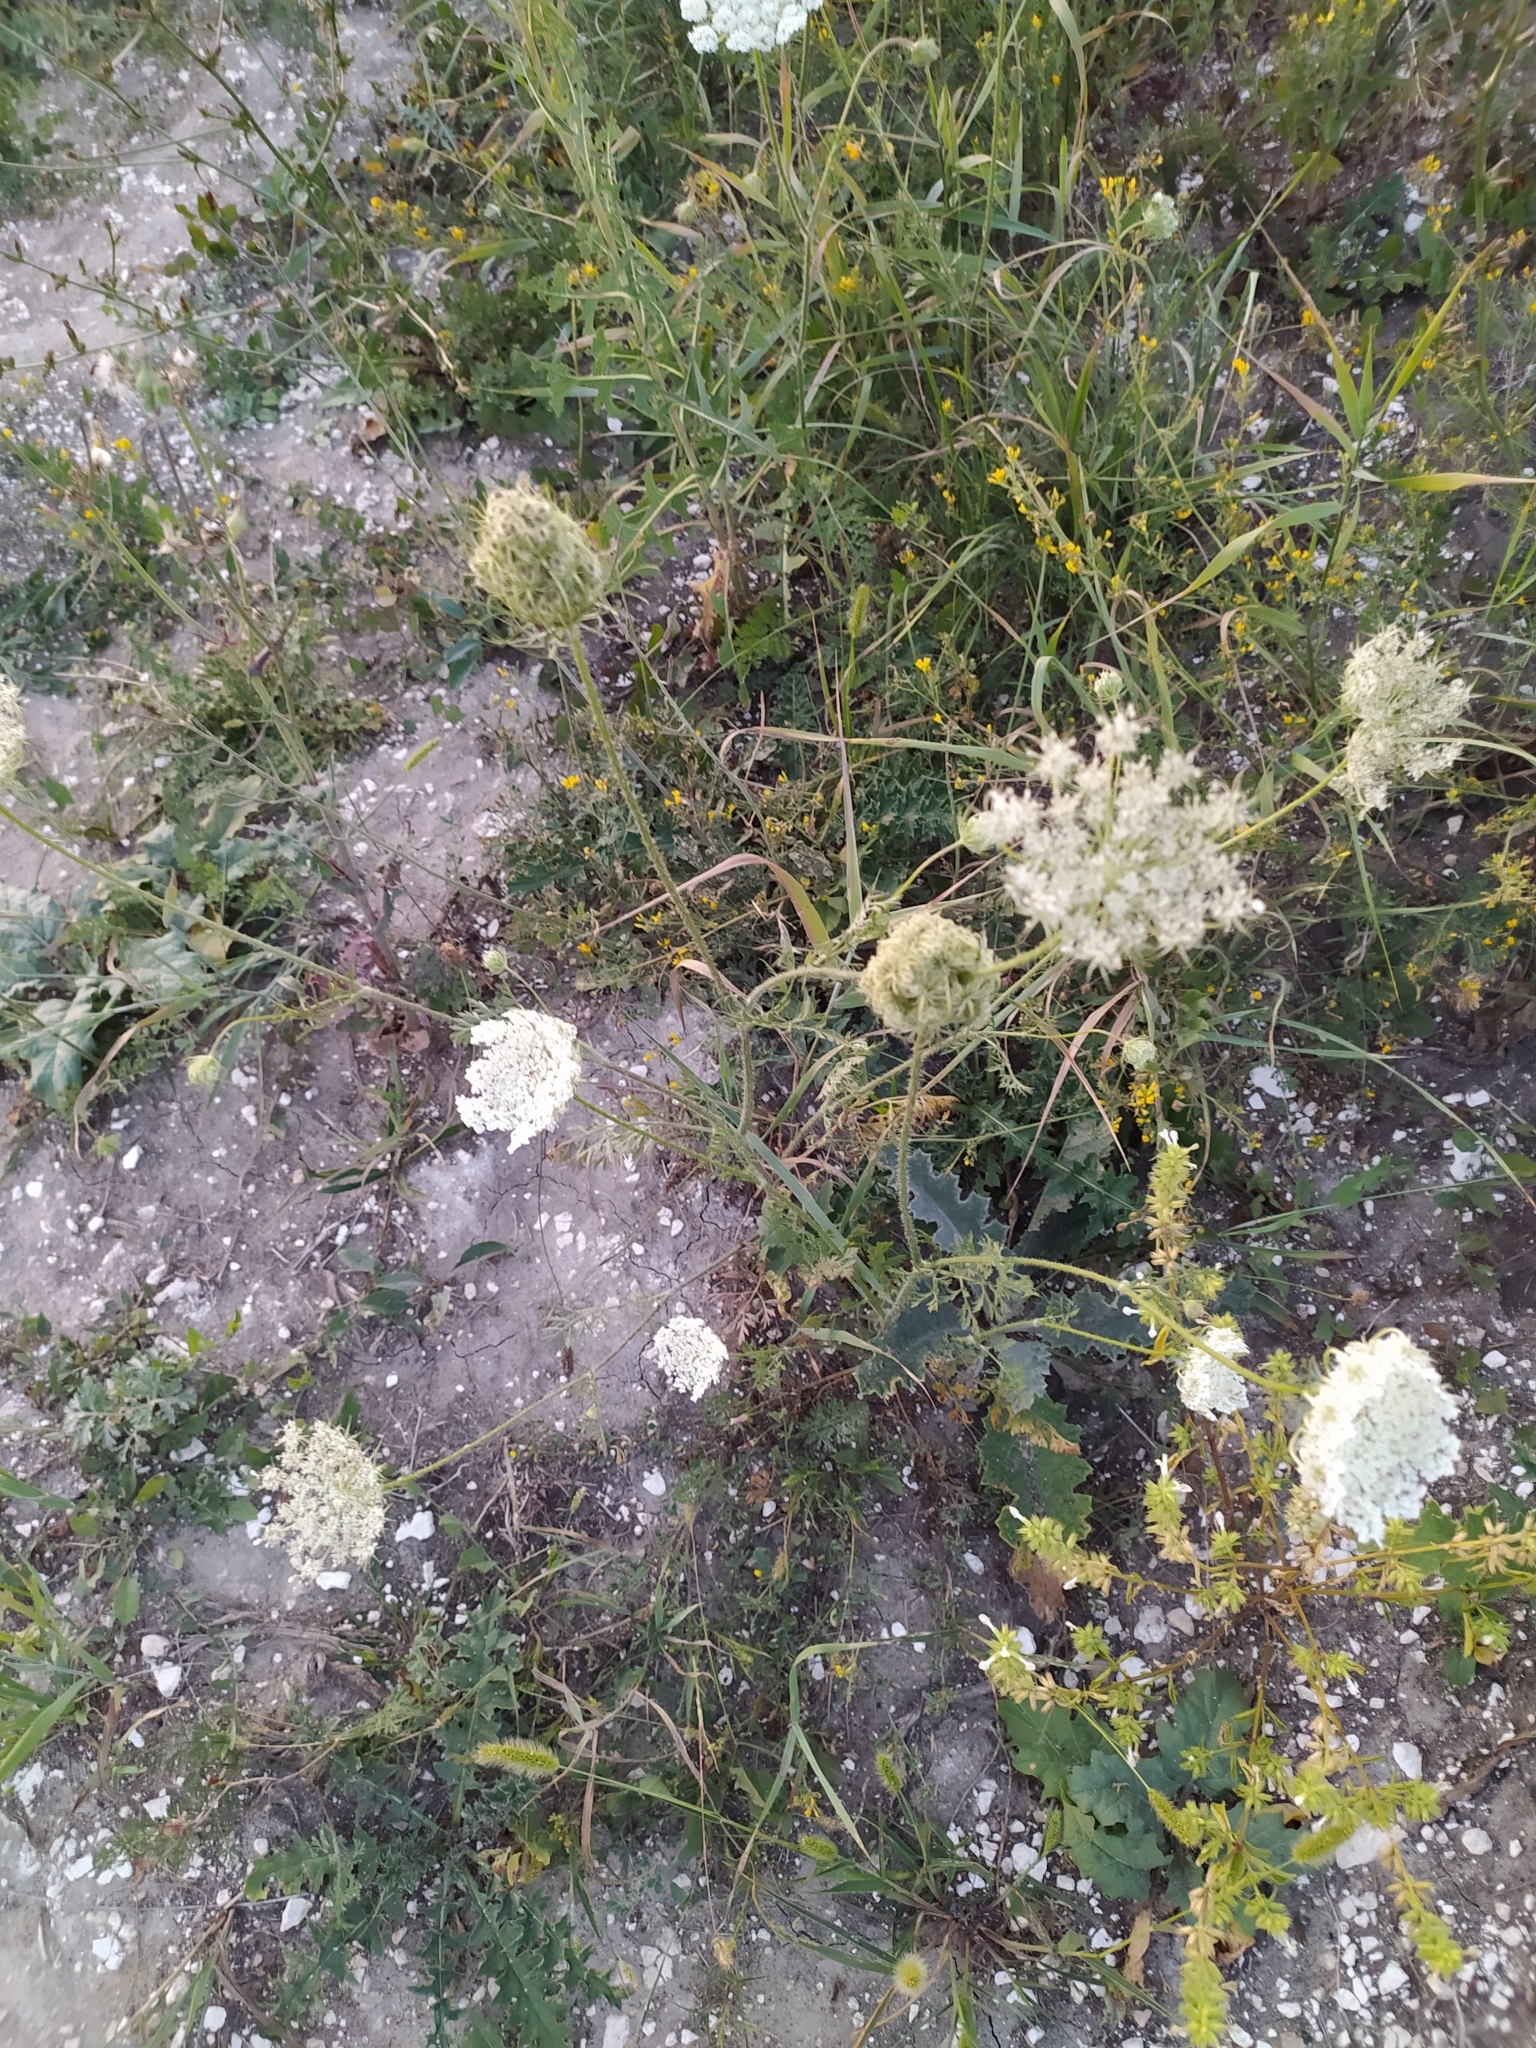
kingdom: Plantae
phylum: Tracheophyta
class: Magnoliopsida
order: Apiales
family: Apiaceae
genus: Daucus
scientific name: Daucus carota
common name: Wild carrot
